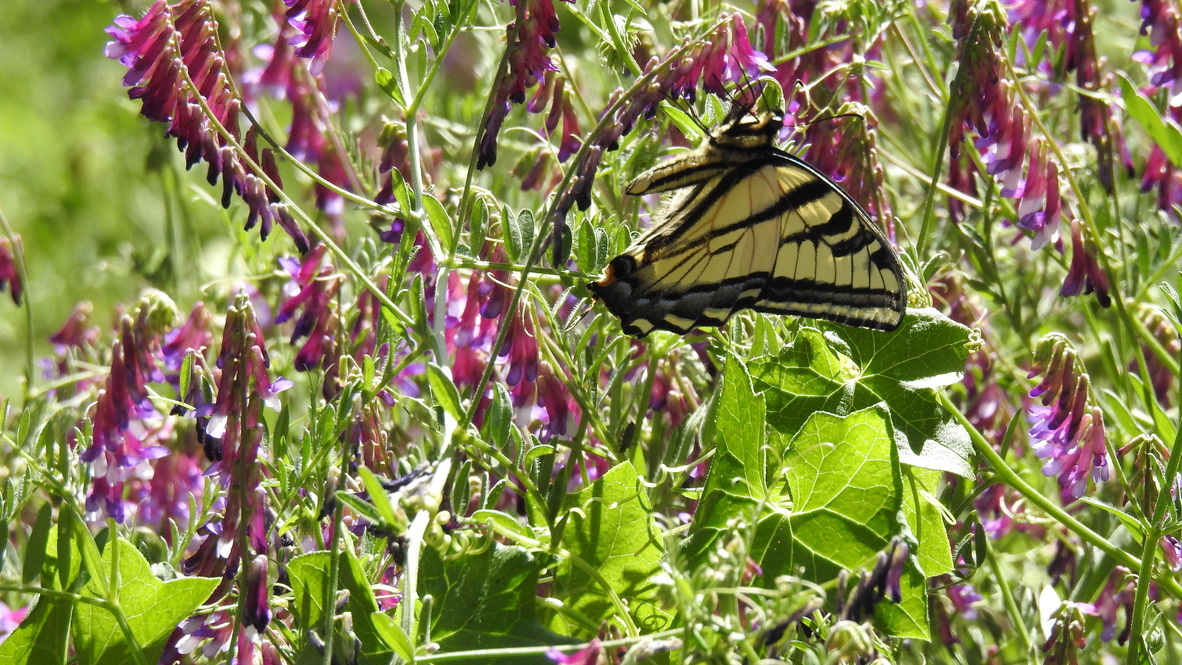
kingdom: Animalia
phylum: Arthropoda
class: Insecta
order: Lepidoptera
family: Papilionidae
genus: Papilio
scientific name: Papilio rutulus
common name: Western tiger swallowtail
